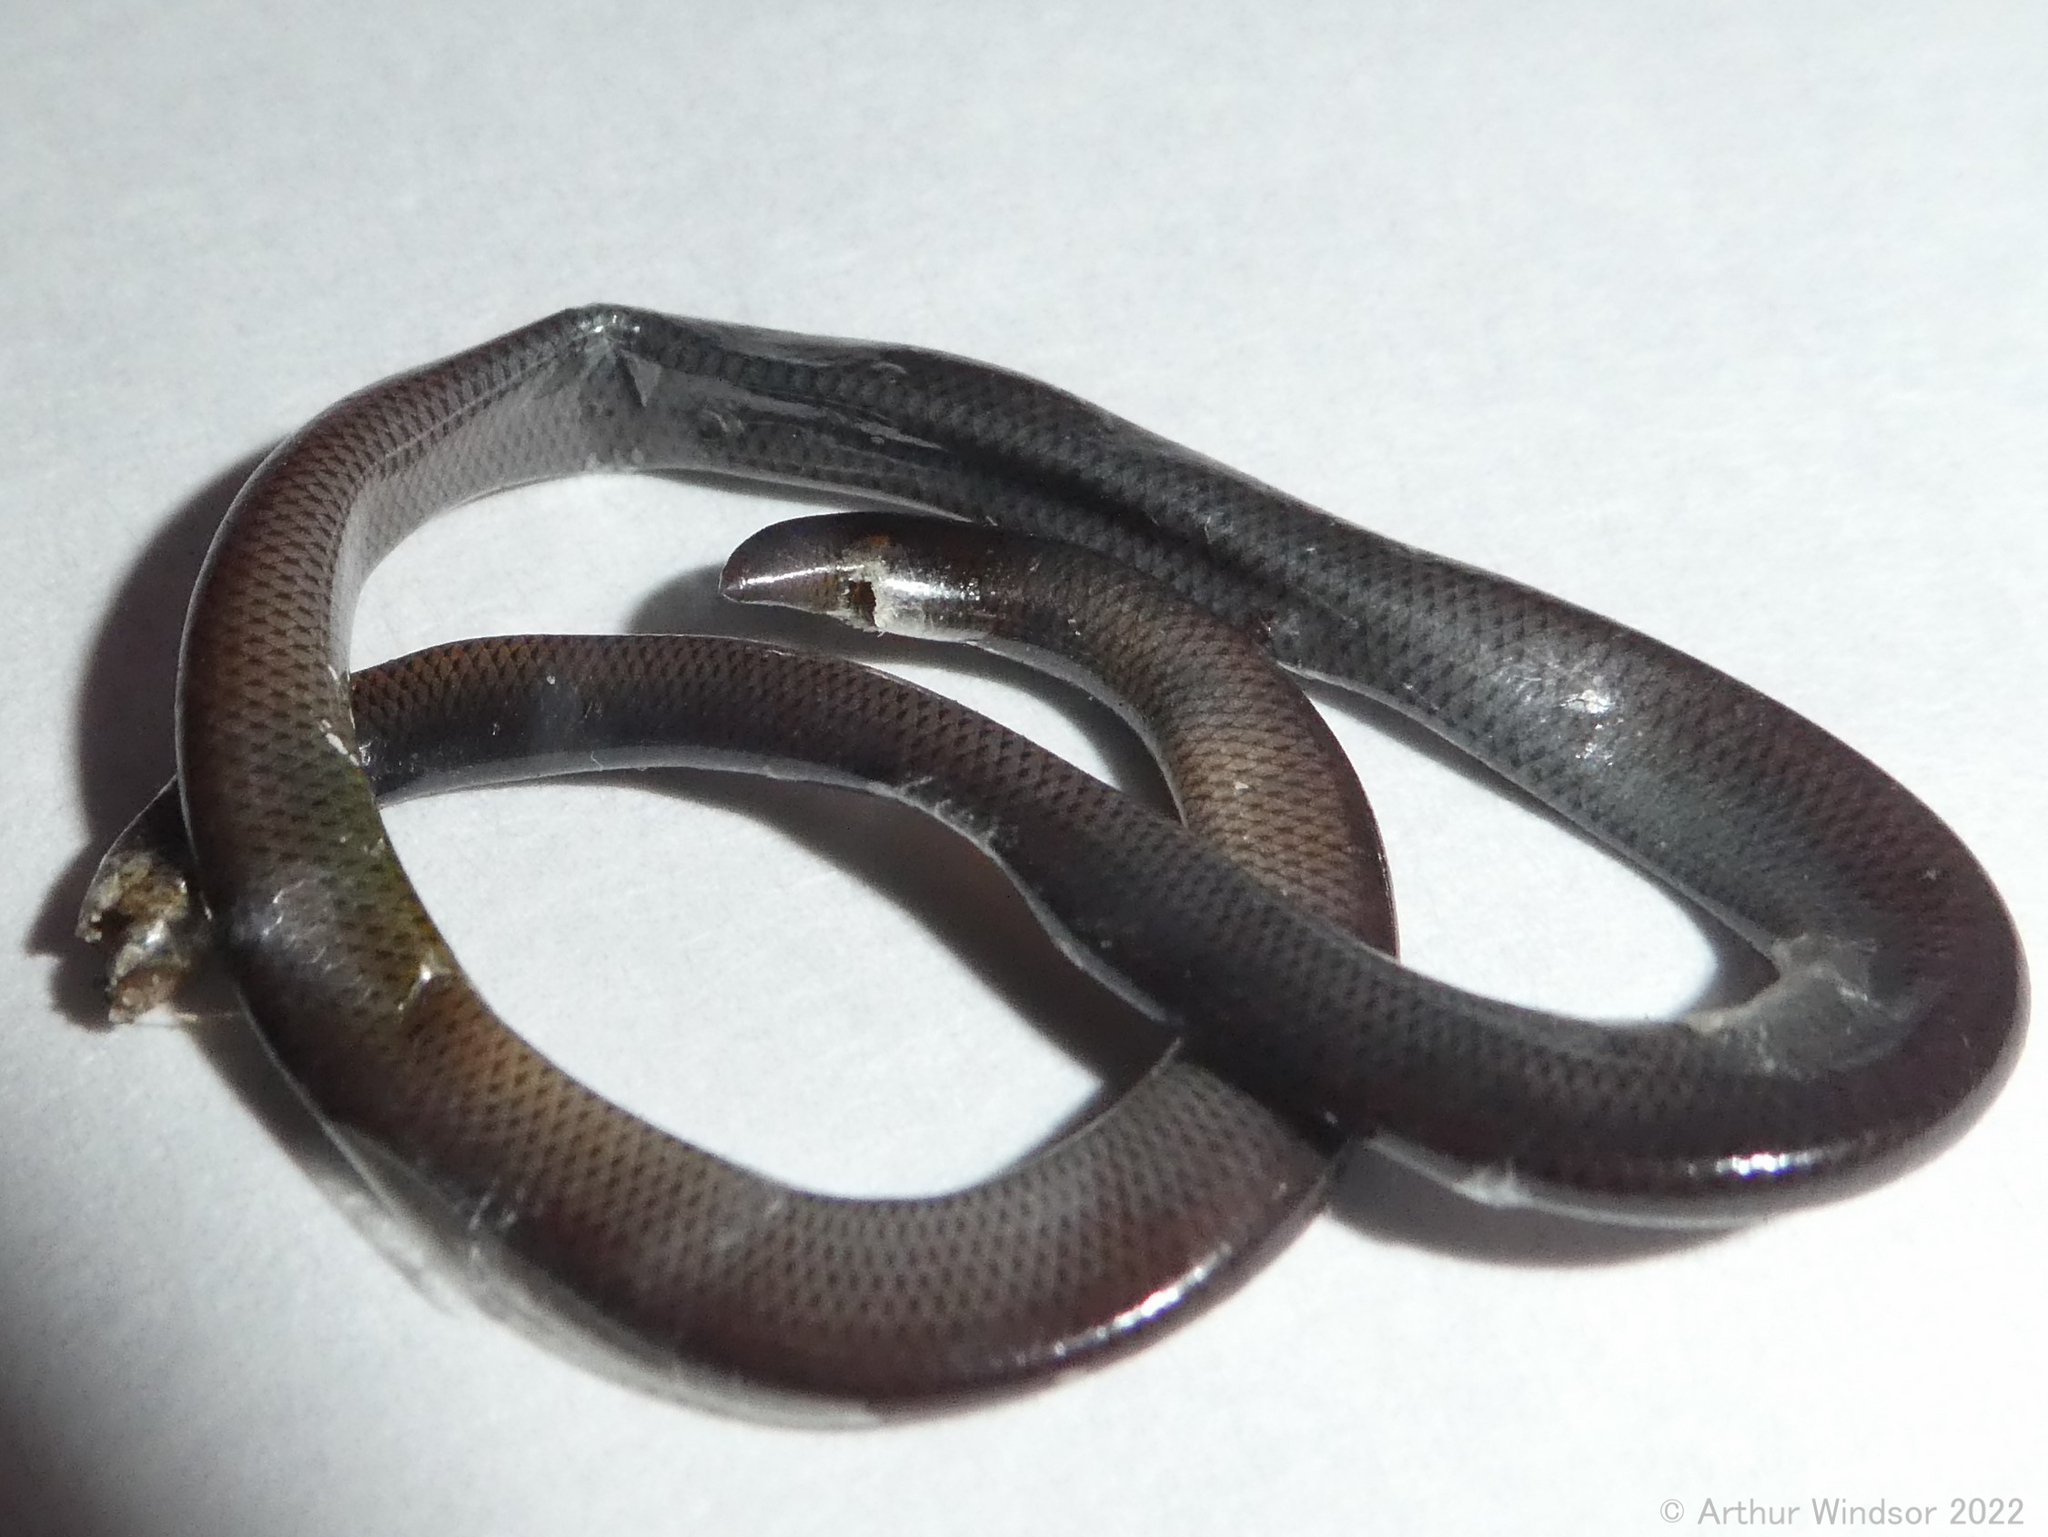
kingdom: Animalia
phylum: Chordata
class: Squamata
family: Typhlopidae
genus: Indotyphlops
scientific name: Indotyphlops braminus
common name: Brahminy blindsnake
